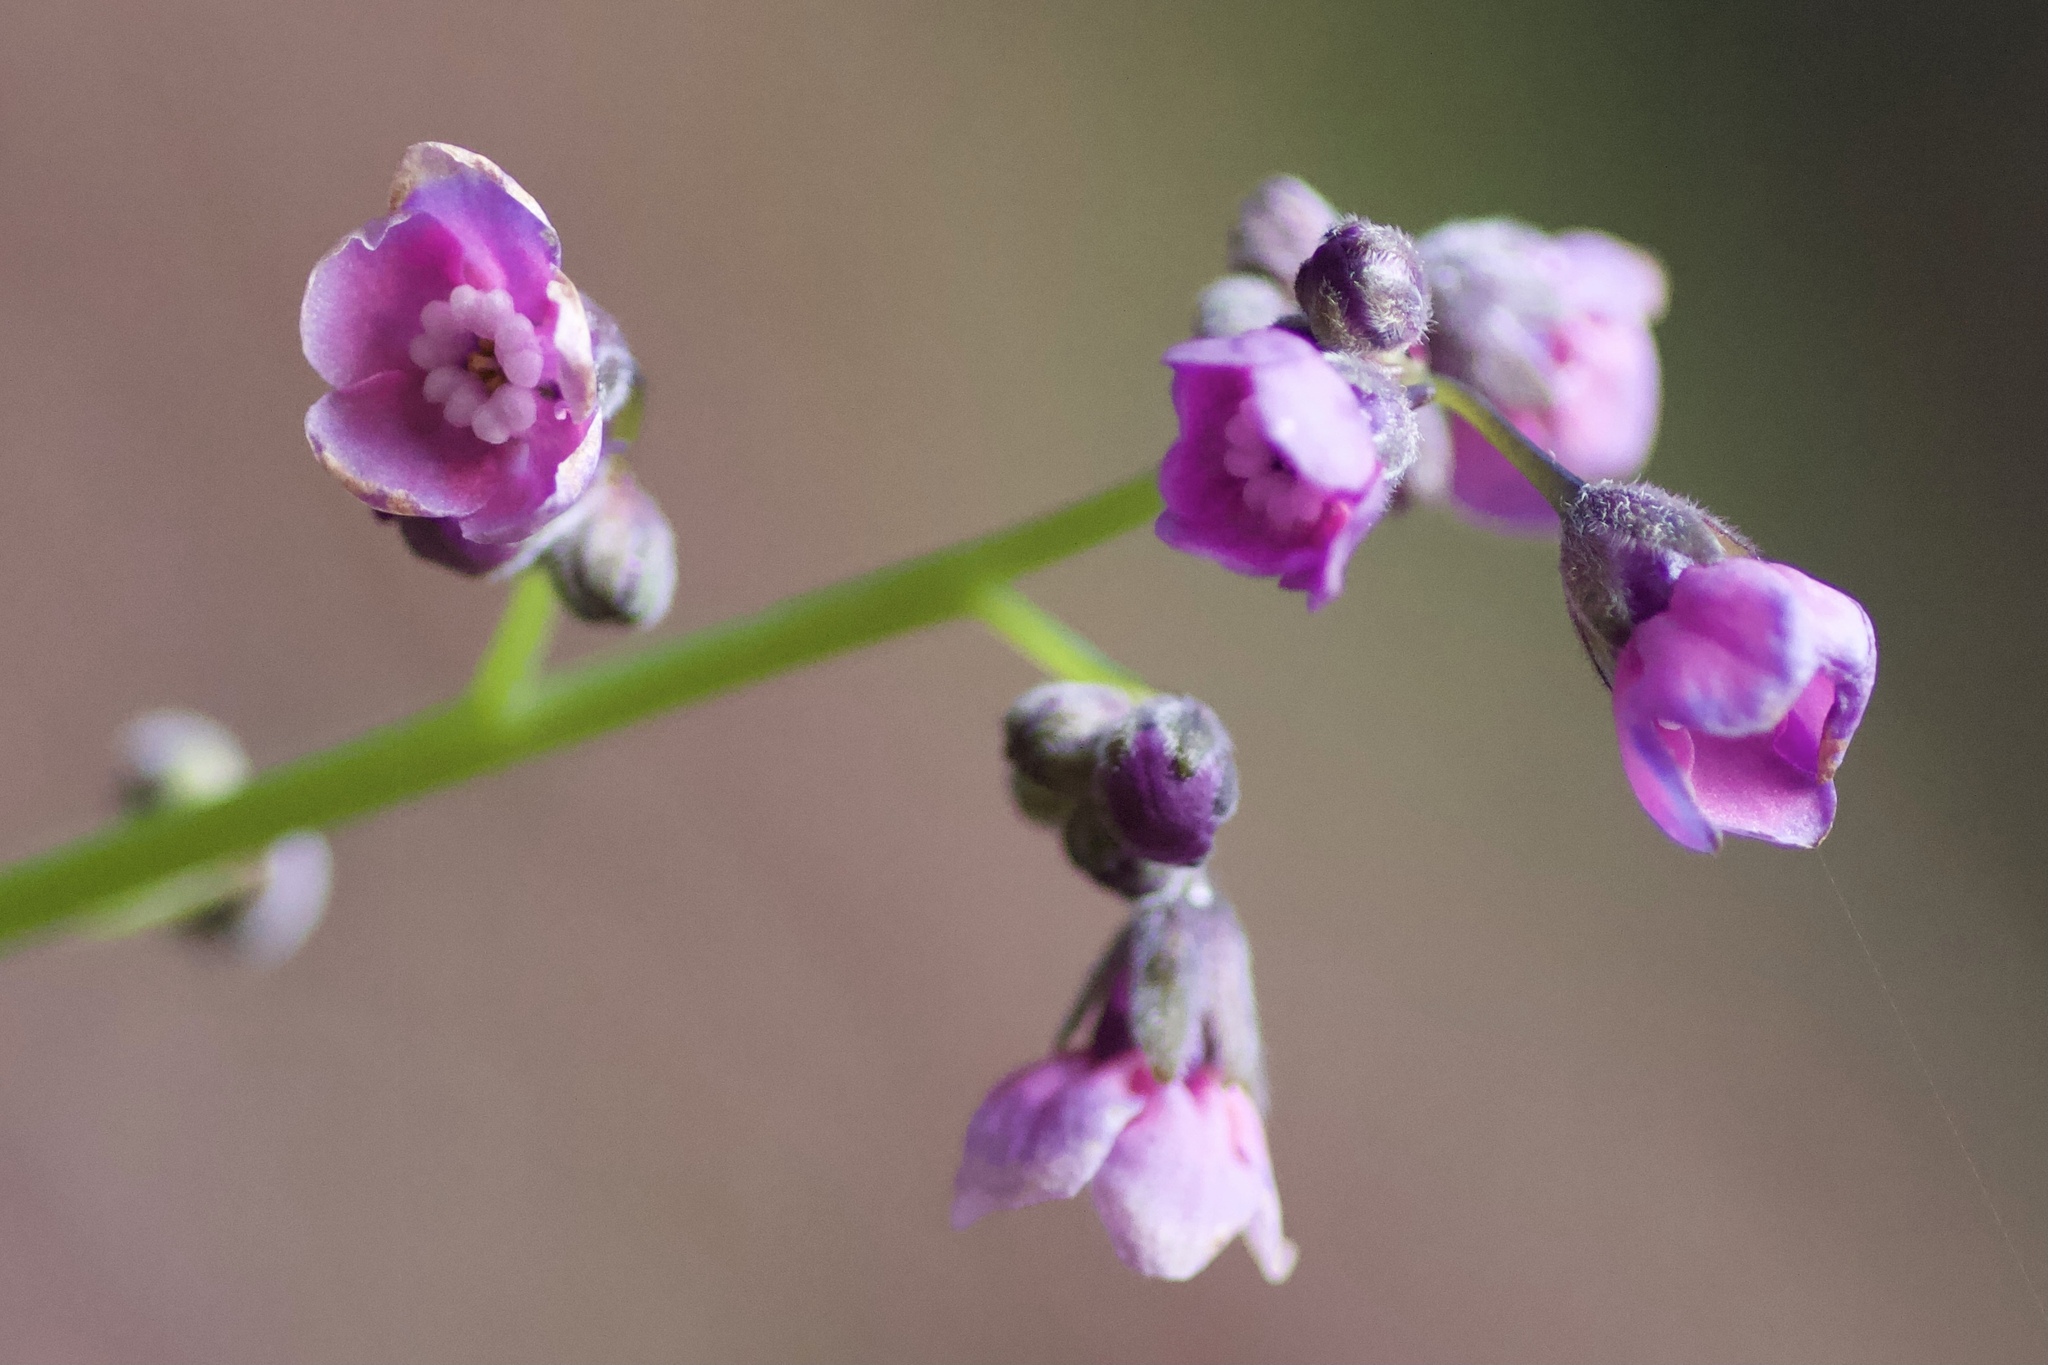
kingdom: Plantae
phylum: Tracheophyta
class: Magnoliopsida
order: Boraginales
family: Boraginaceae
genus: Adelinia
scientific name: Adelinia grande
